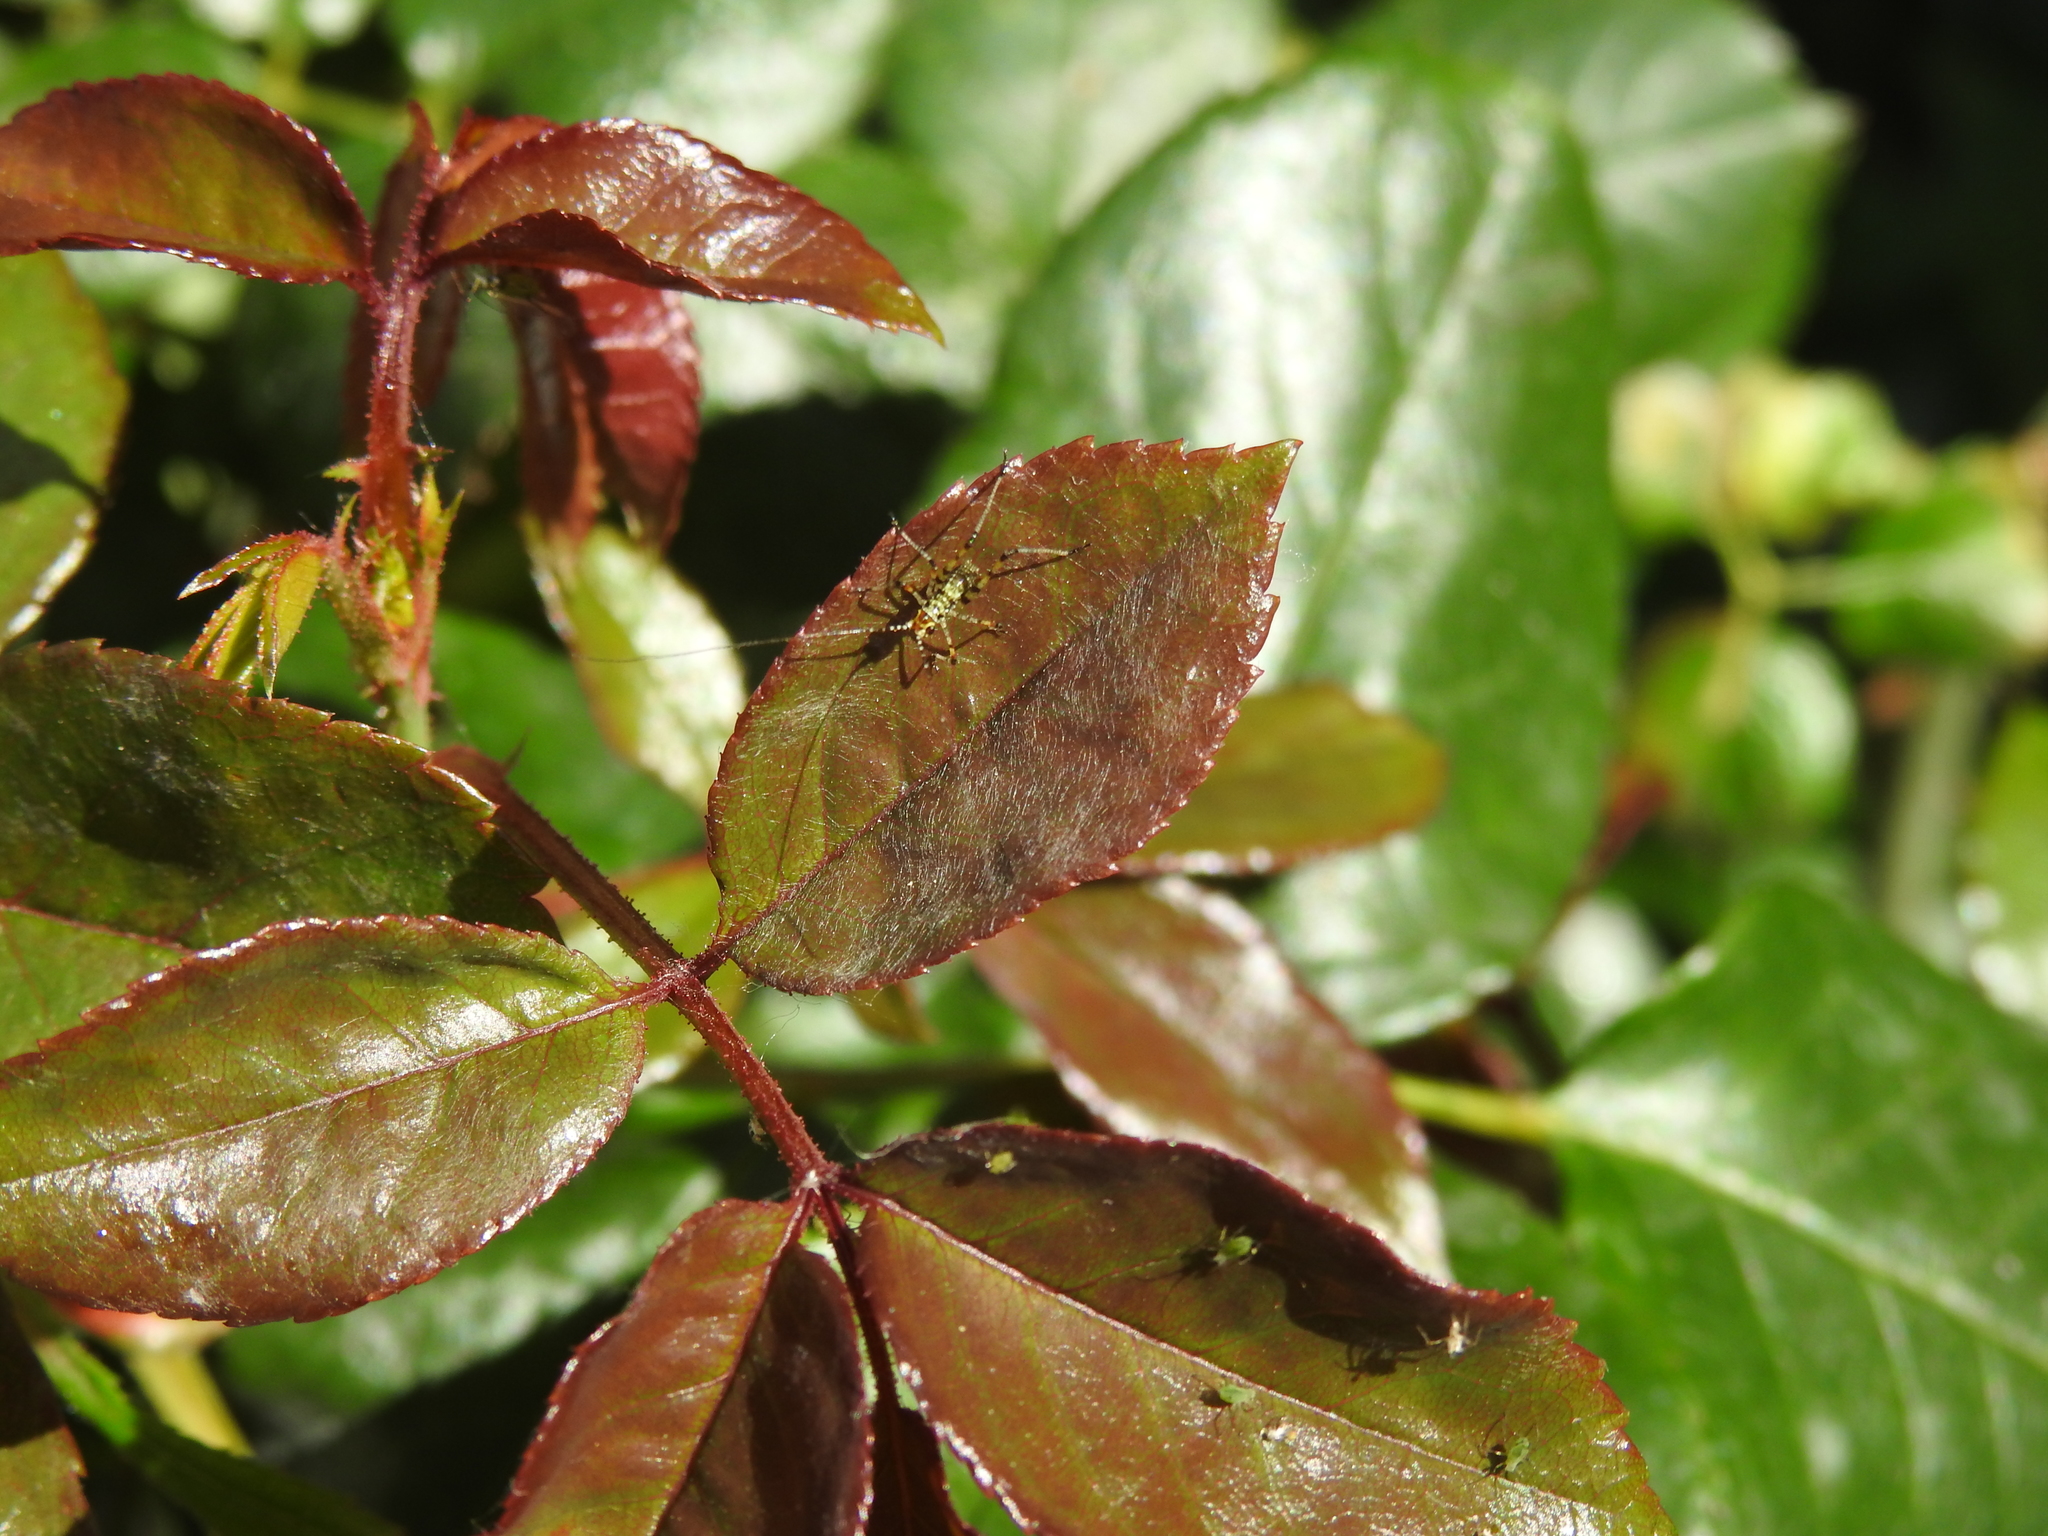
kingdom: Animalia
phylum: Arthropoda
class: Insecta
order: Orthoptera
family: Tettigoniidae
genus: Phaneroptera
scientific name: Phaneroptera nana
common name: Southern sickle bush-cricket
